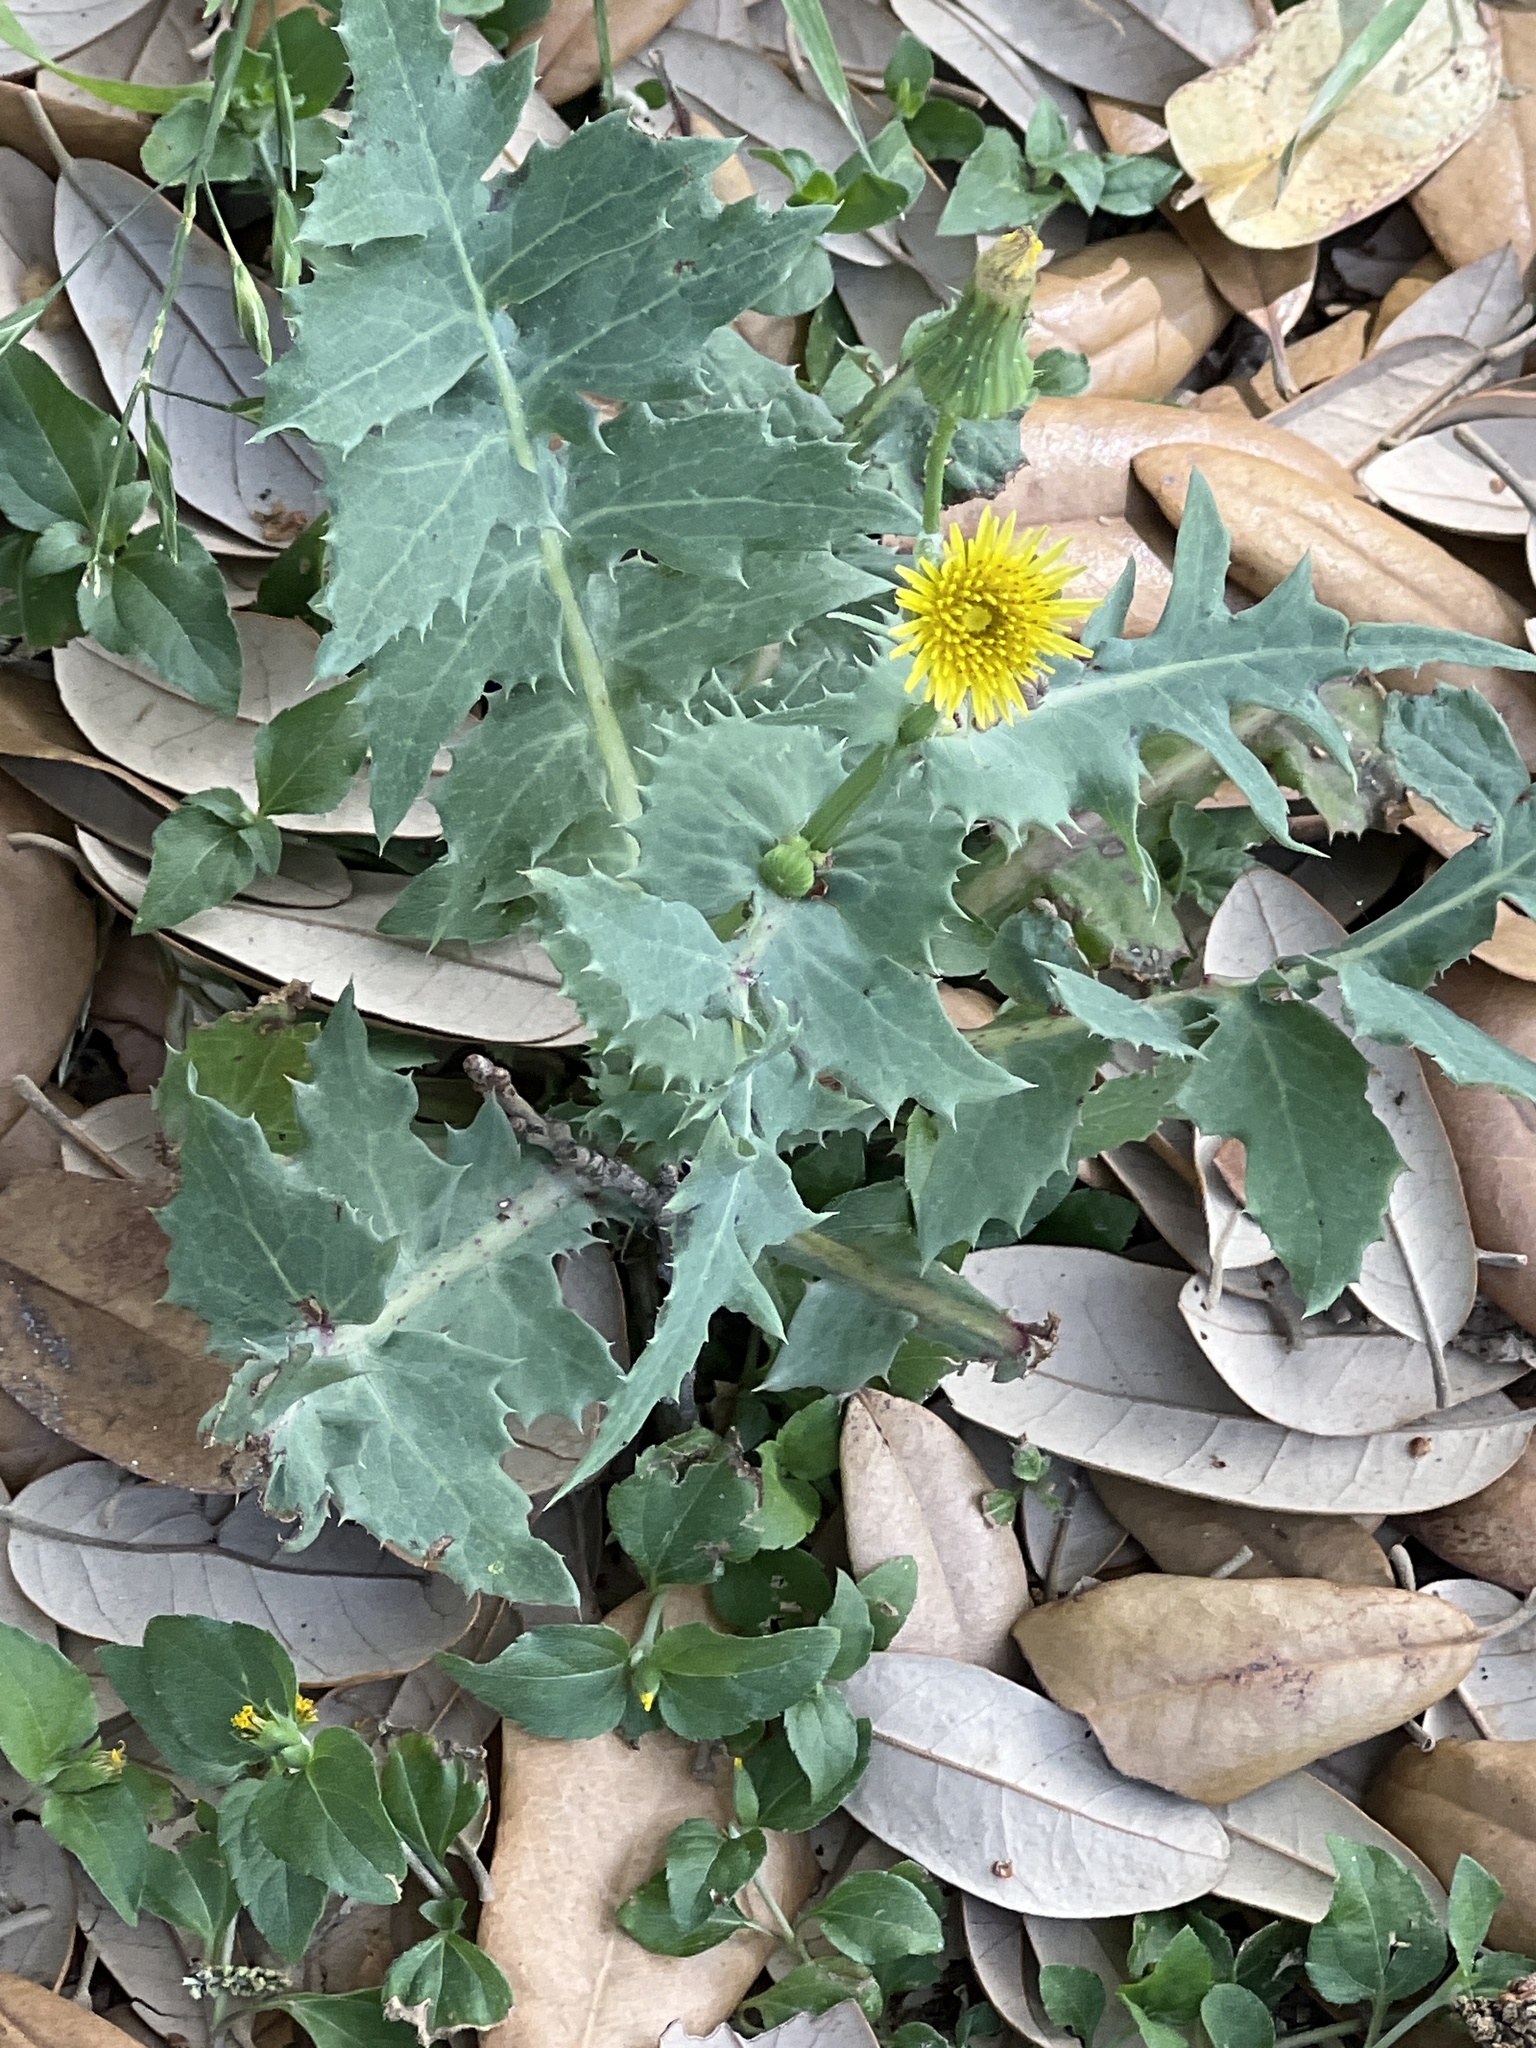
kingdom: Plantae
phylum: Tracheophyta
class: Magnoliopsida
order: Asterales
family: Asteraceae
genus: Sonchus
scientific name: Sonchus oleraceus
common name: Common sowthistle
